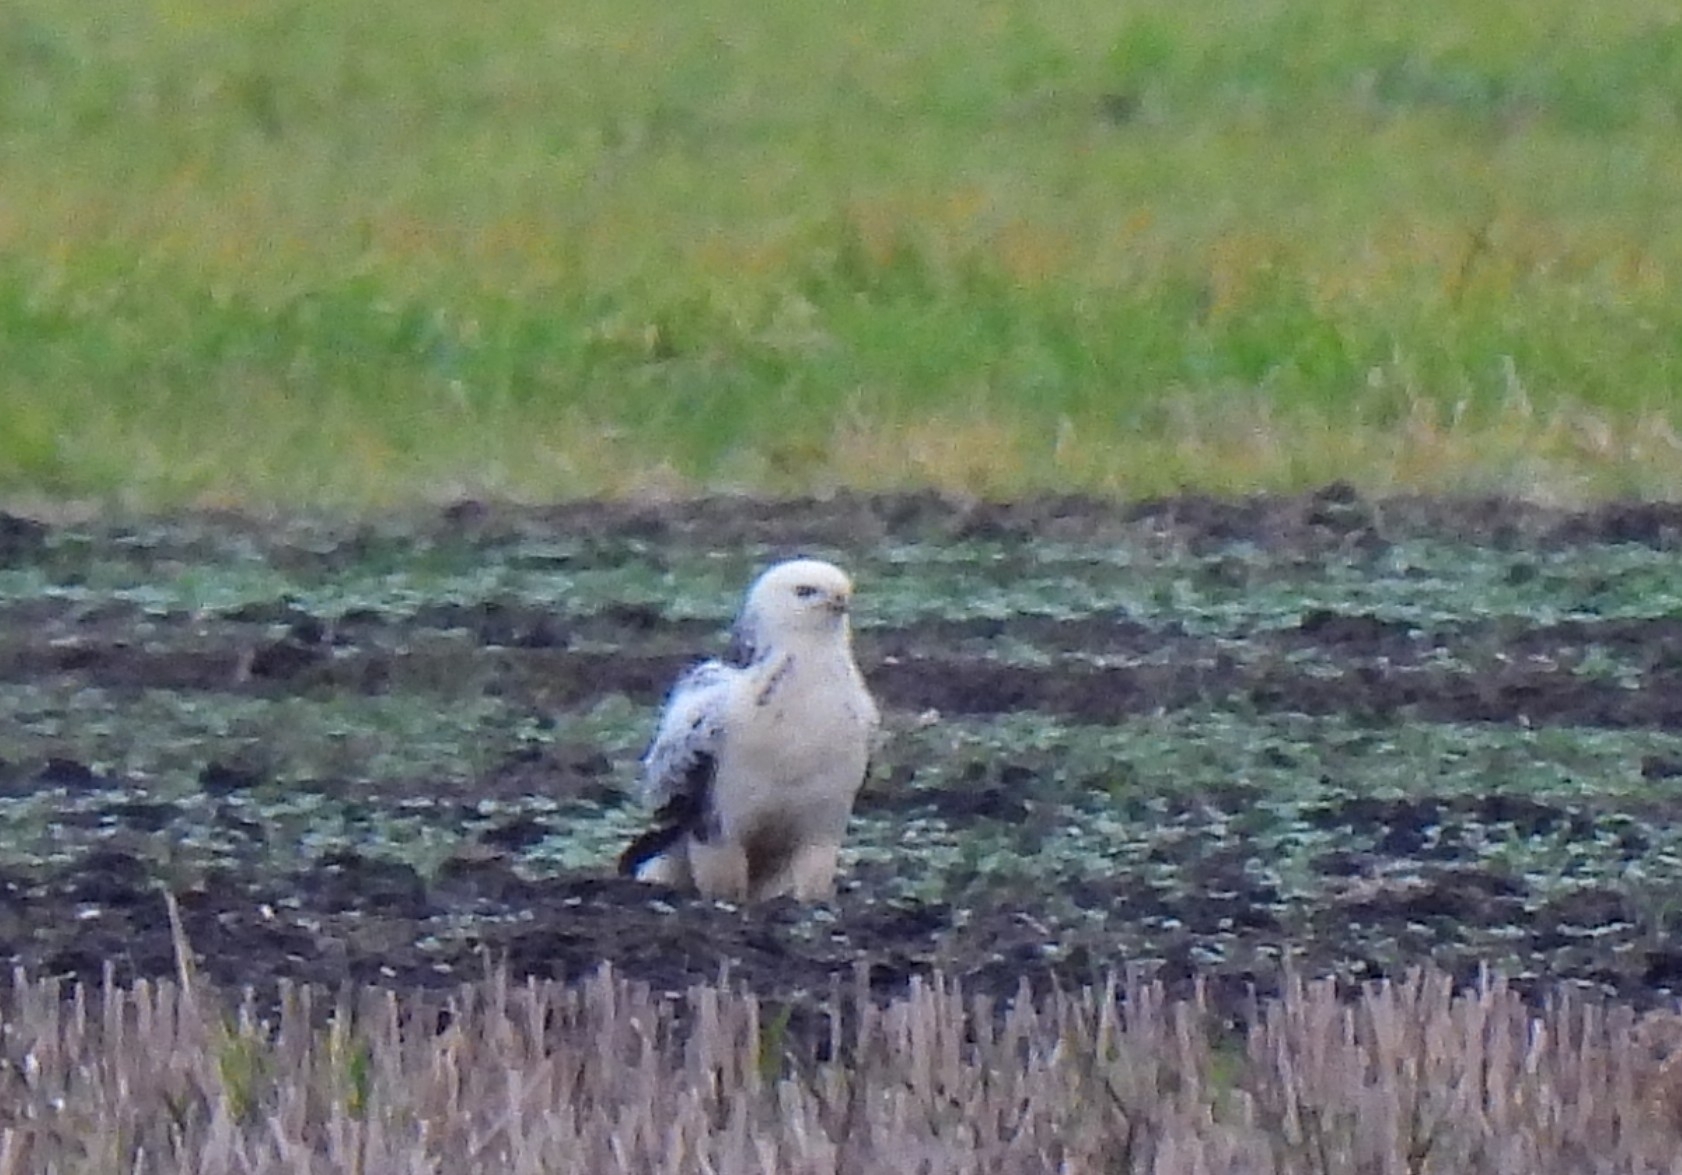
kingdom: Animalia
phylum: Chordata
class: Aves
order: Accipitriformes
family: Accipitridae
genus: Buteo
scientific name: Buteo buteo
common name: Common buzzard
